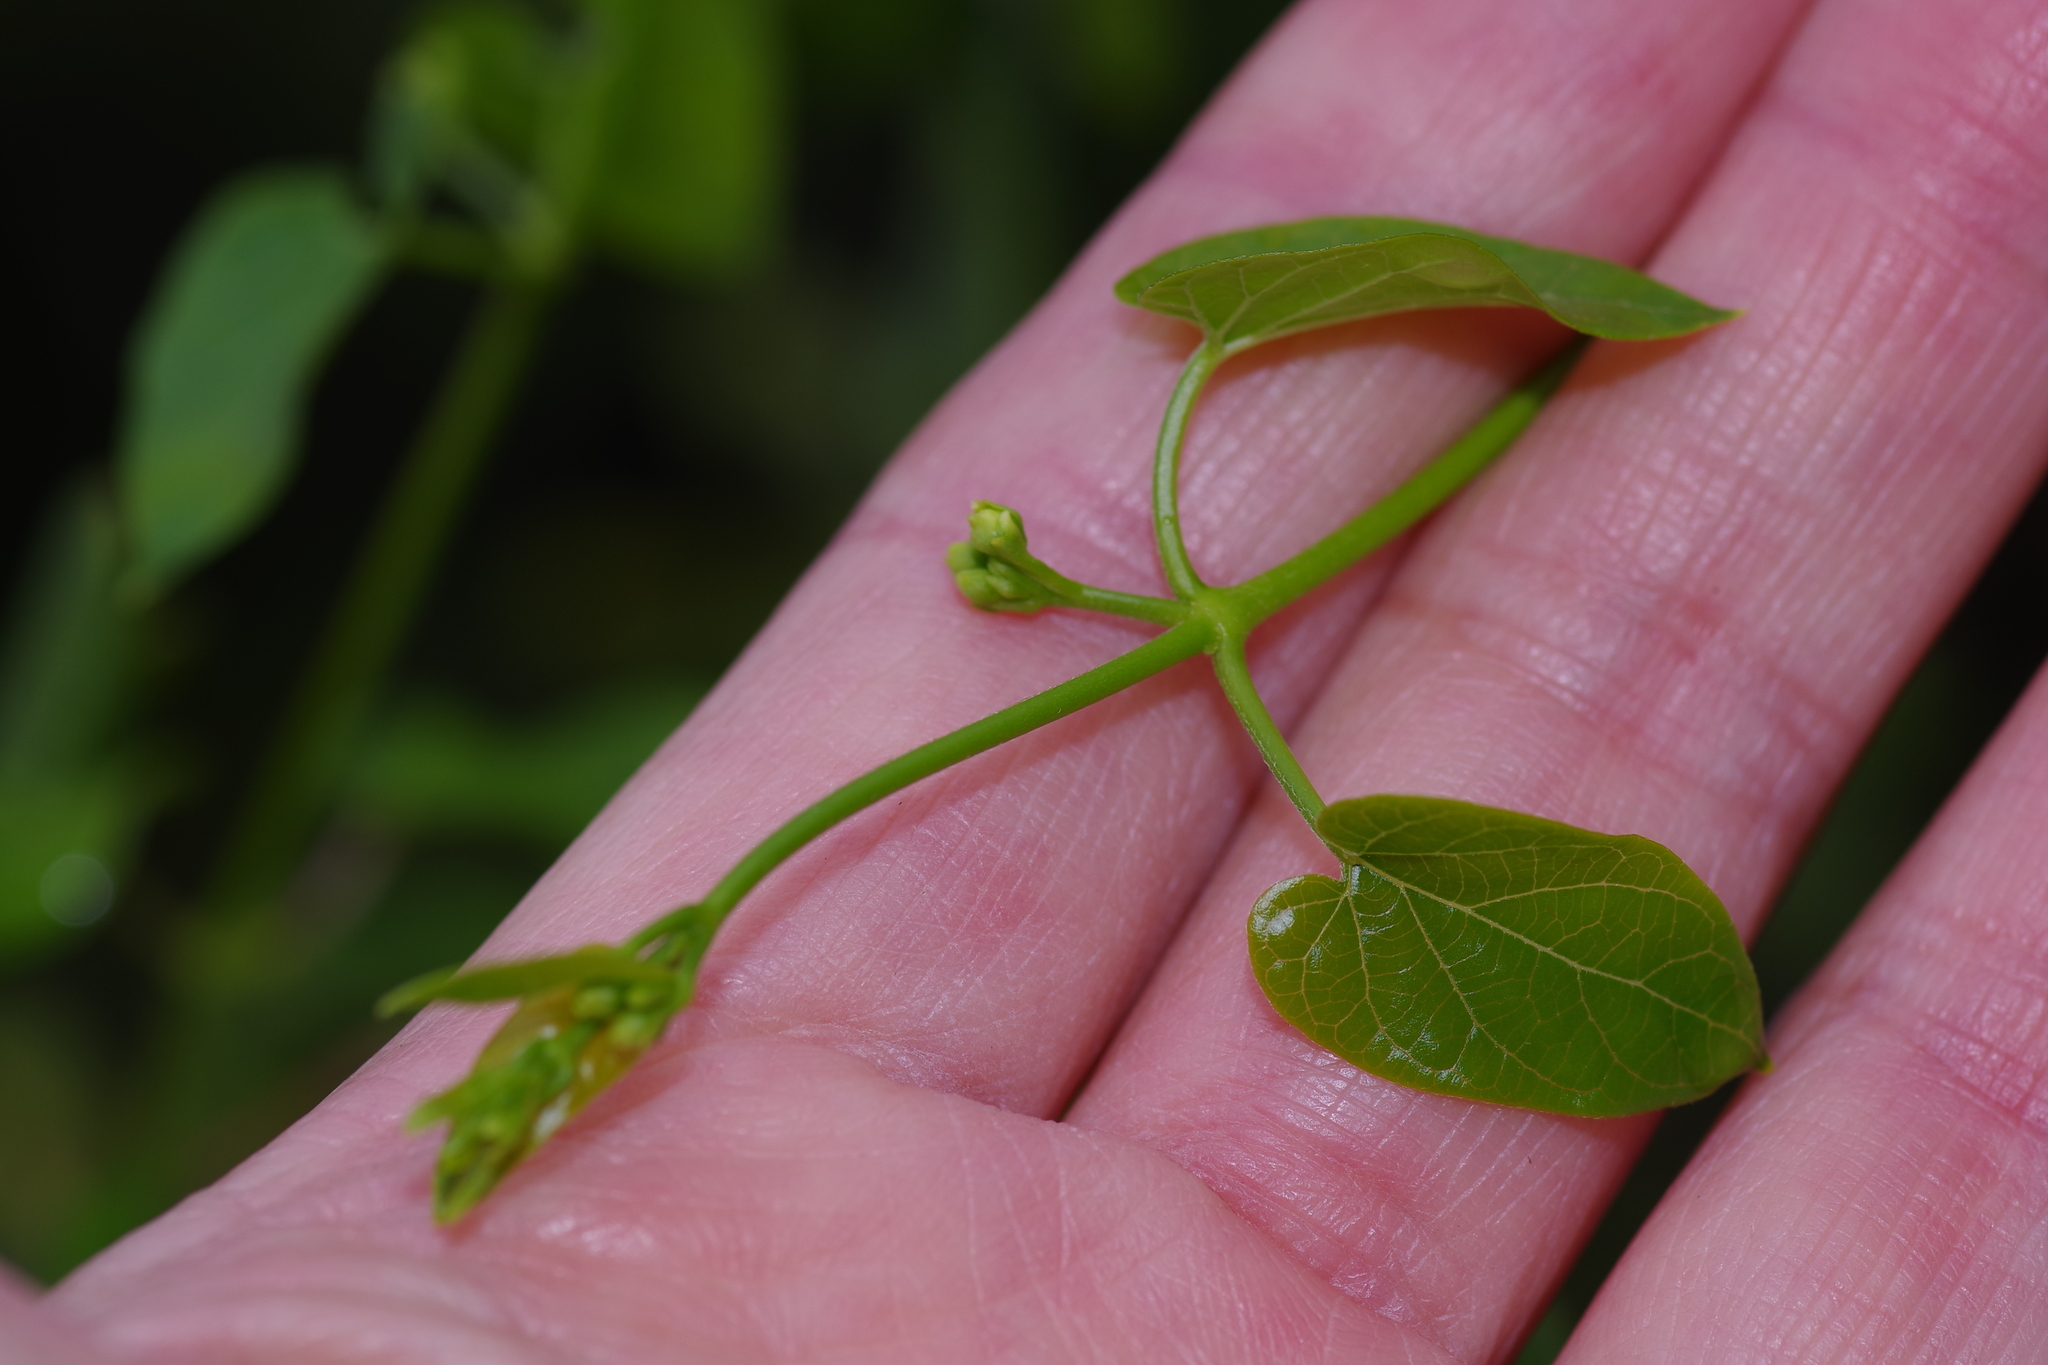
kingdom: Plantae
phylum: Tracheophyta
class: Magnoliopsida
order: Gentianales
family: Apocynaceae
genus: Cynanchum
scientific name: Cynanchum racemosum
